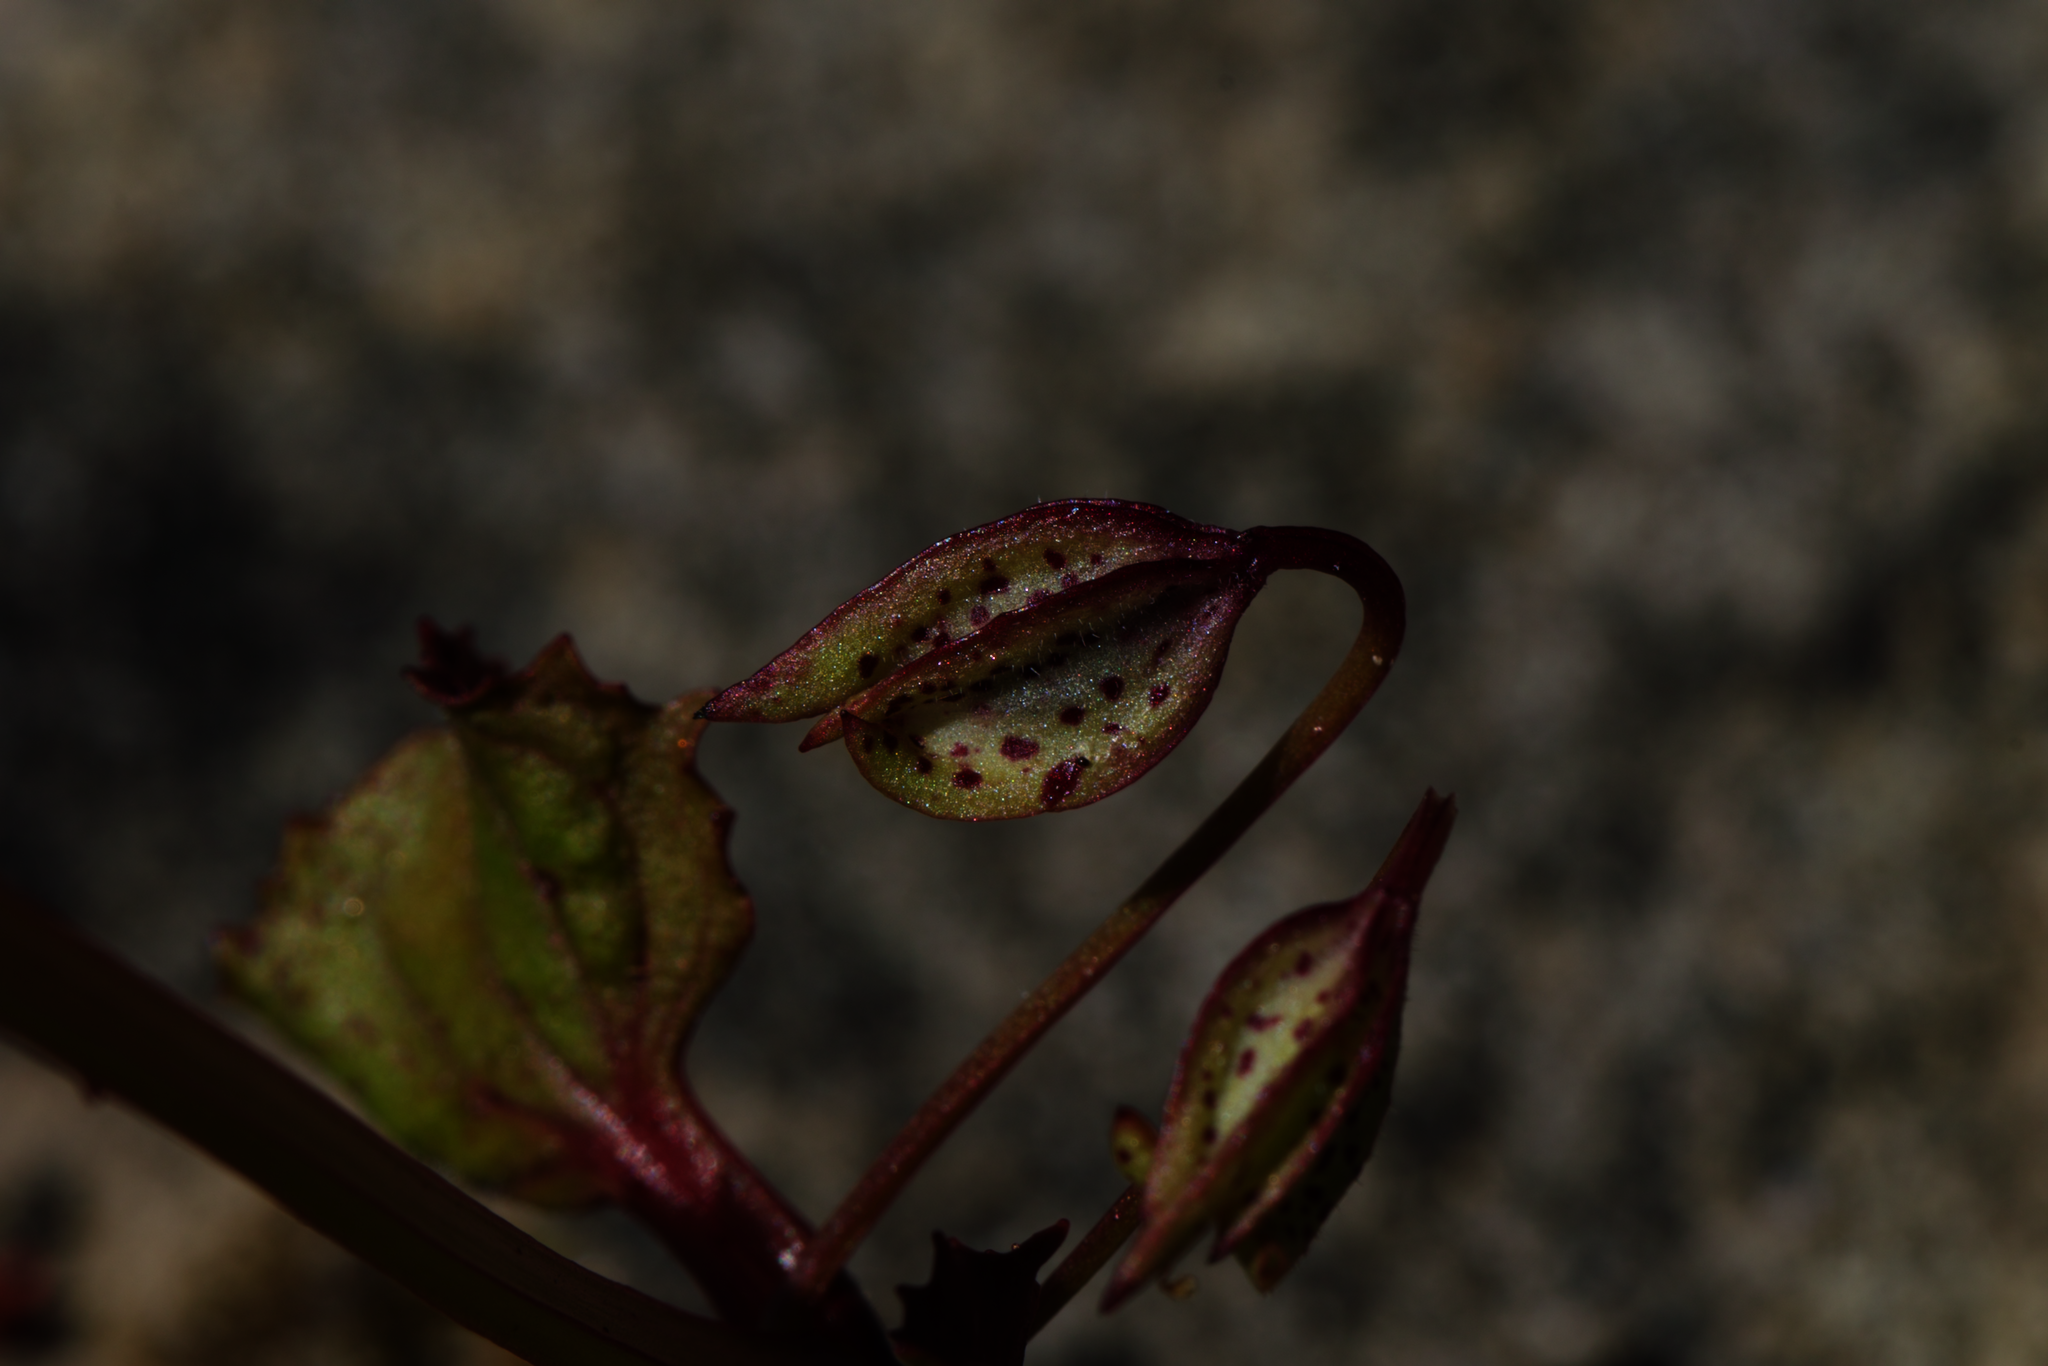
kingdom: Plantae
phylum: Tracheophyta
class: Magnoliopsida
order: Lamiales
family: Phrymaceae
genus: Erythranthe
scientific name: Erythranthe nasuta
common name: Sooke monkeyflower
